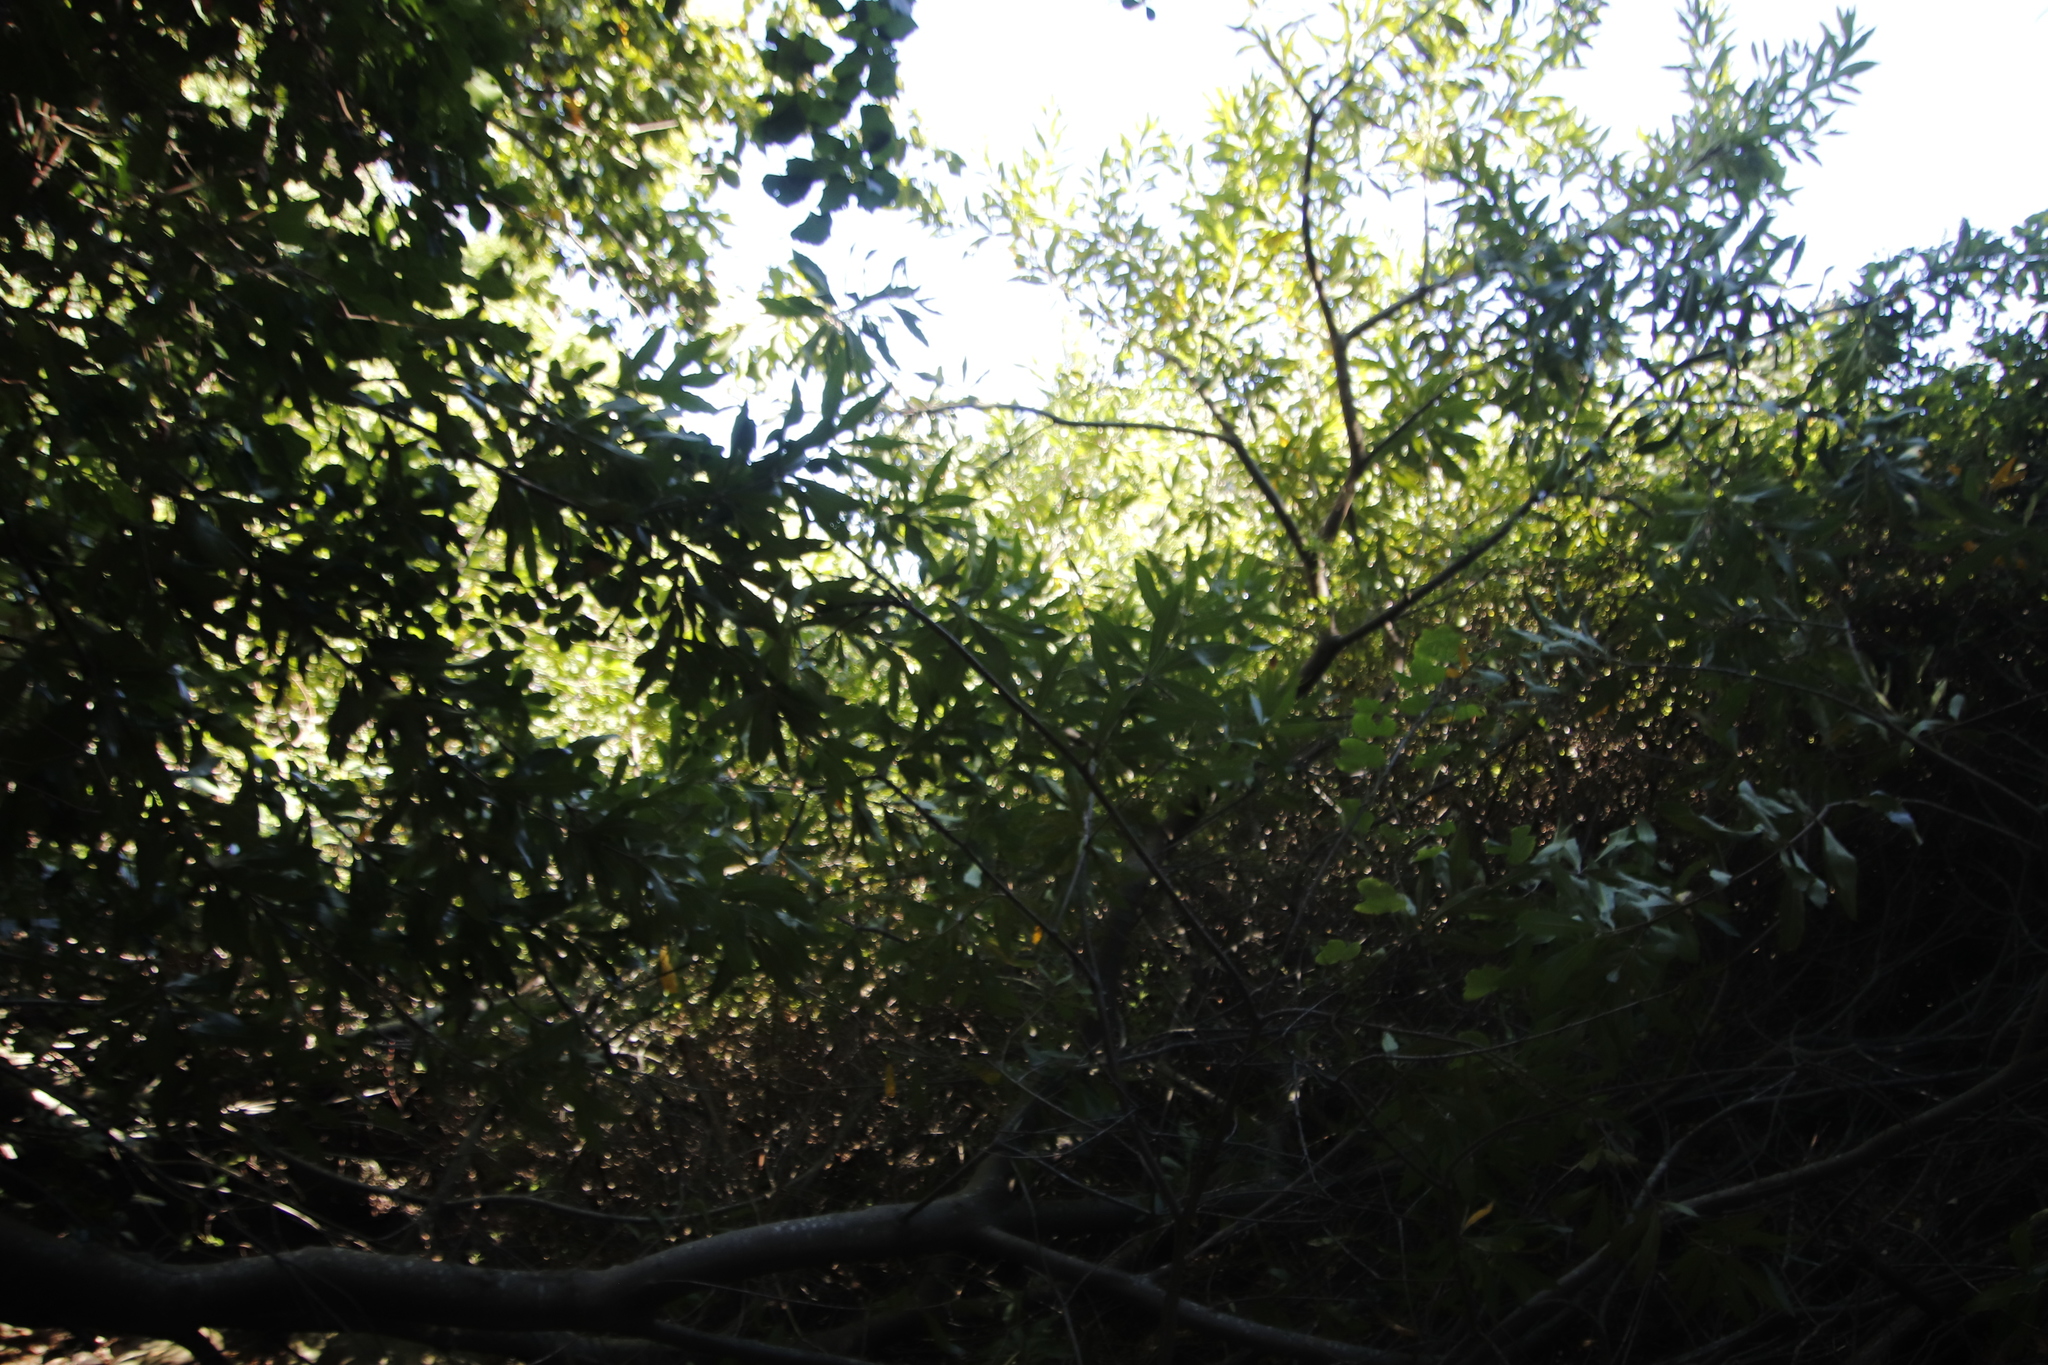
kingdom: Plantae
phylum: Tracheophyta
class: Magnoliopsida
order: Proteales
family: Proteaceae
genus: Brabejum
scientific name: Brabejum stellatifolium
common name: Wild almond
